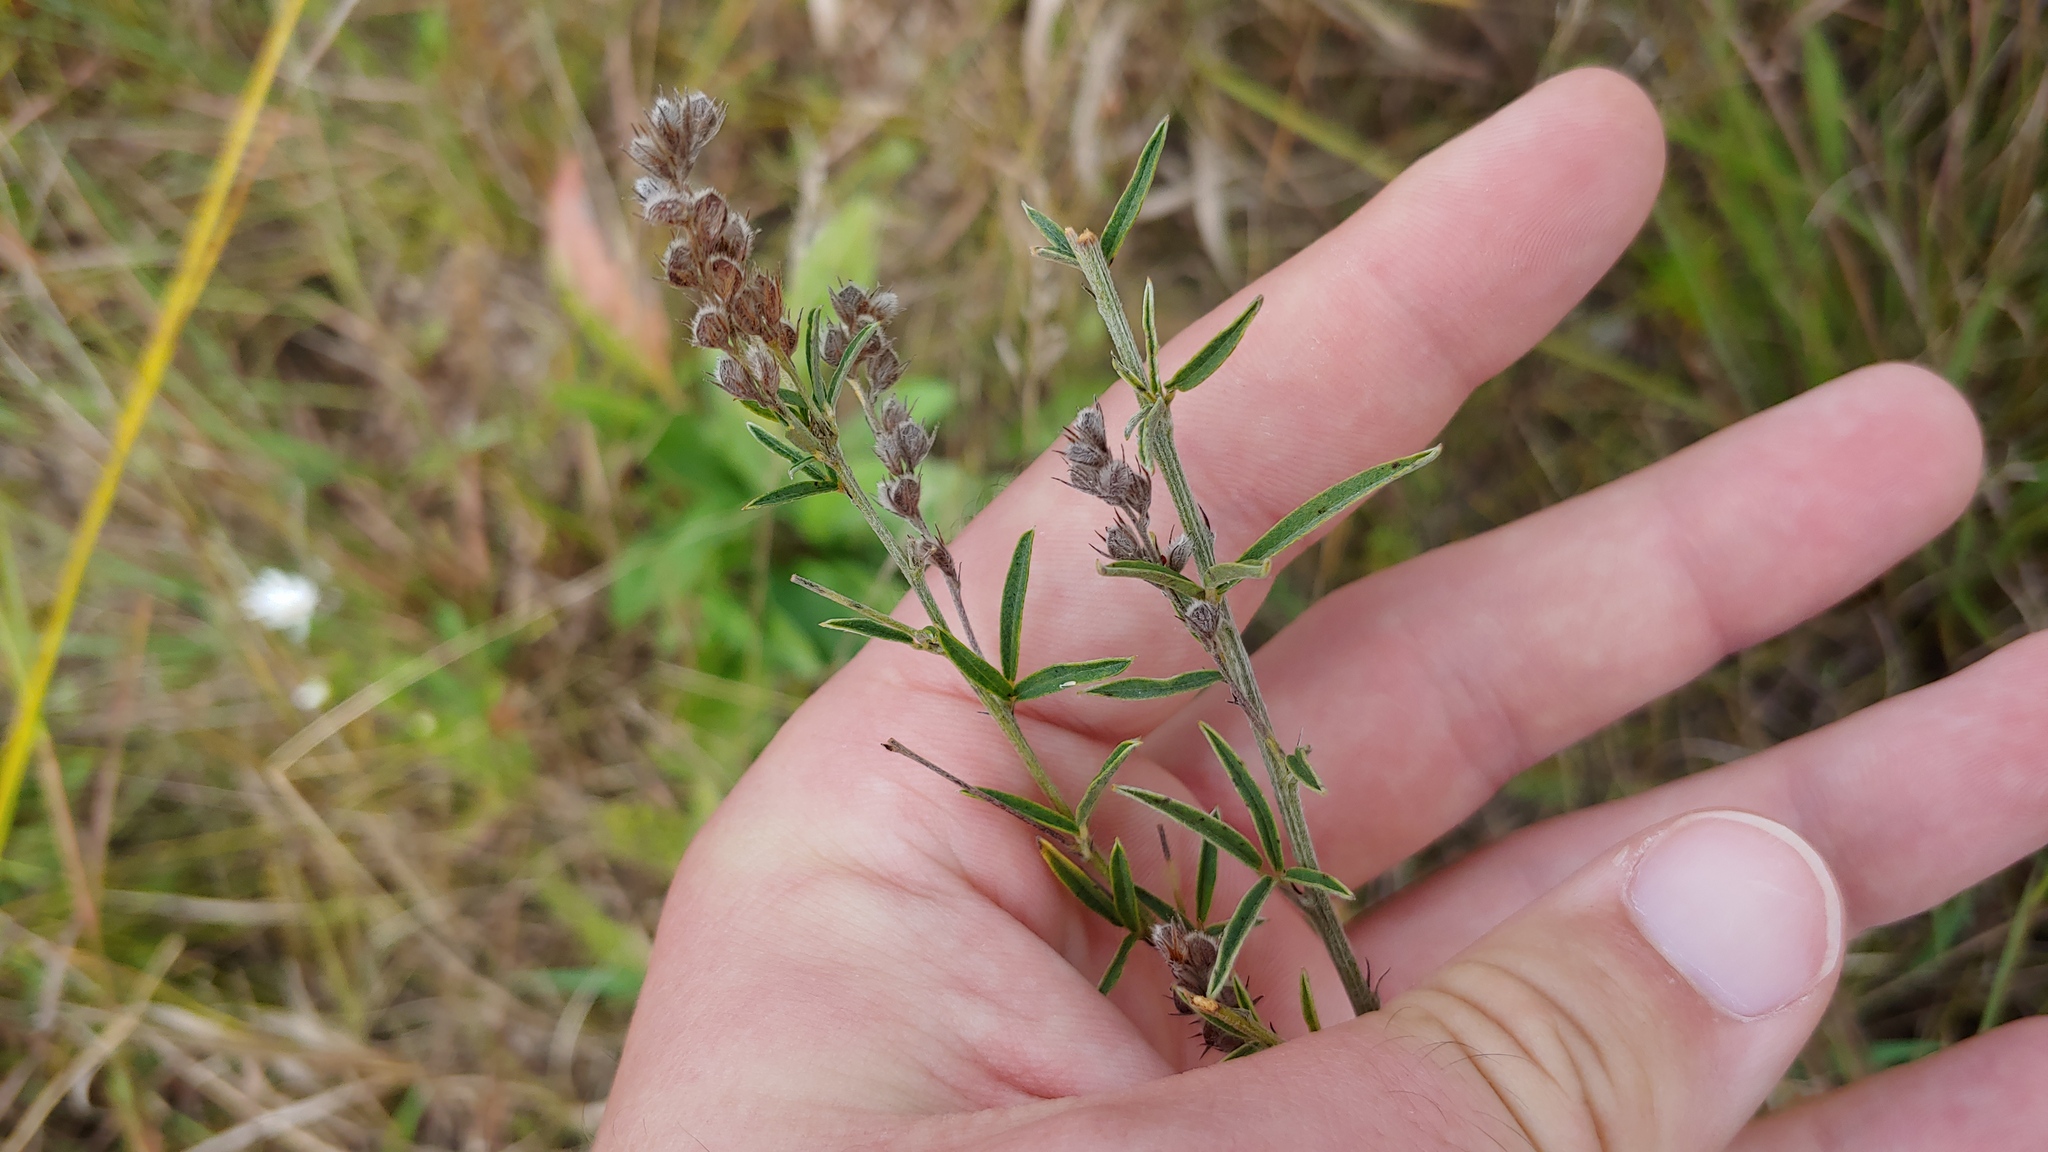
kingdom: Plantae
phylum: Tracheophyta
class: Magnoliopsida
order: Fabales
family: Fabaceae
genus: Lespedeza
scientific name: Lespedeza leptostachya
